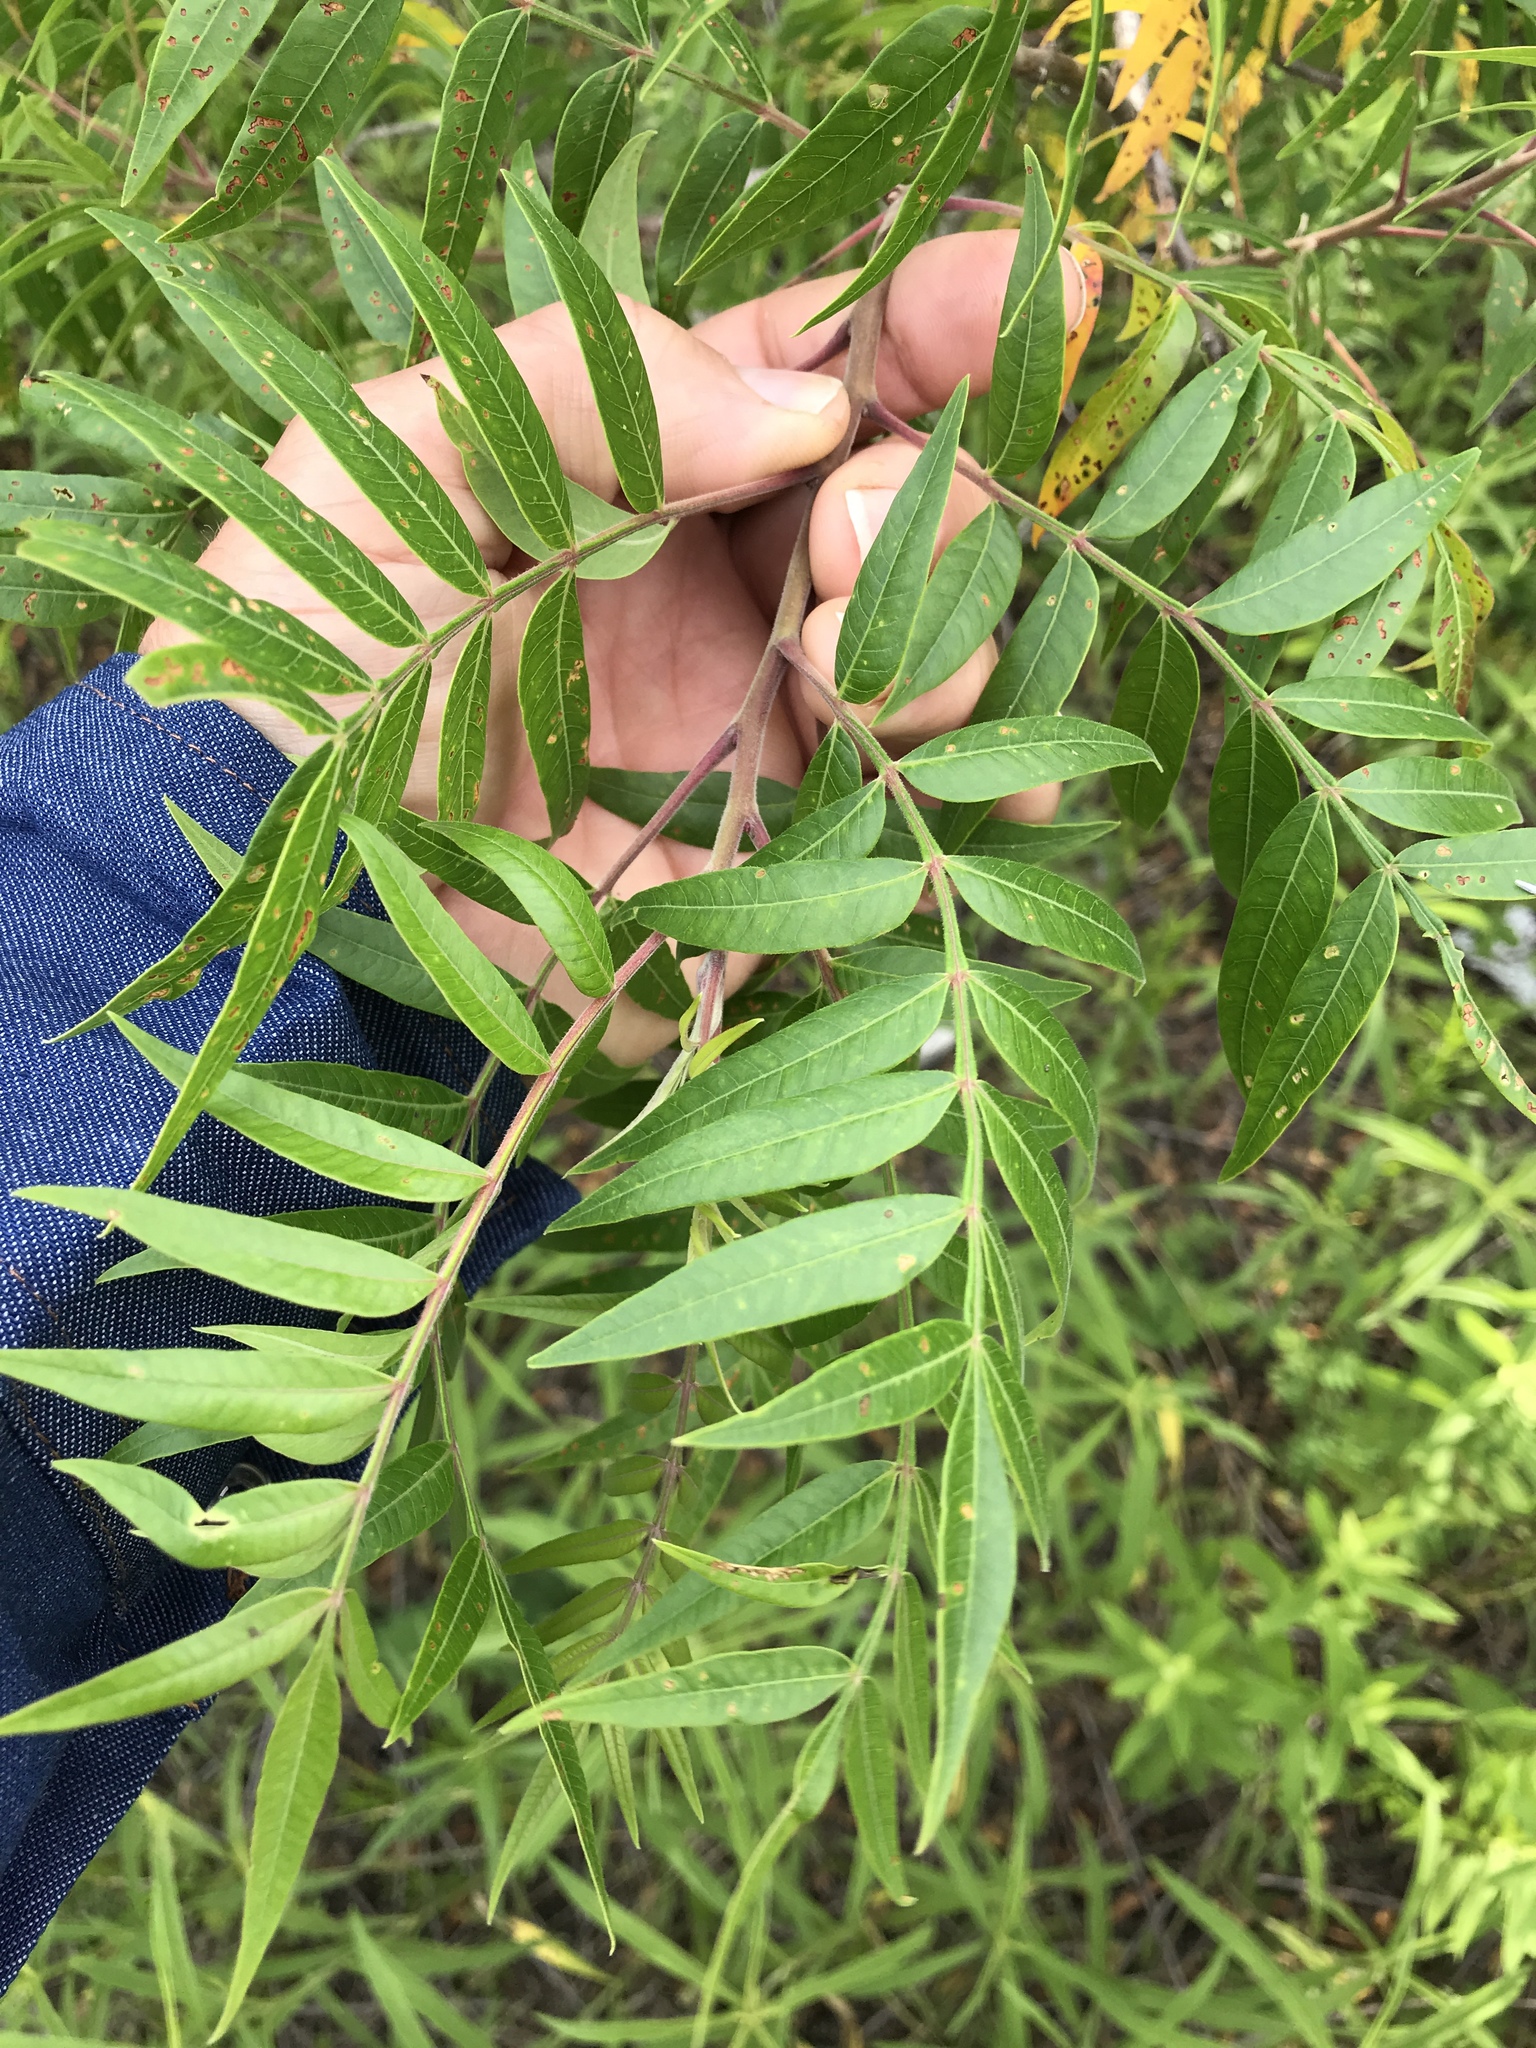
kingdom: Plantae
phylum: Tracheophyta
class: Magnoliopsida
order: Sapindales
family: Anacardiaceae
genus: Rhus
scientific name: Rhus lanceolata
